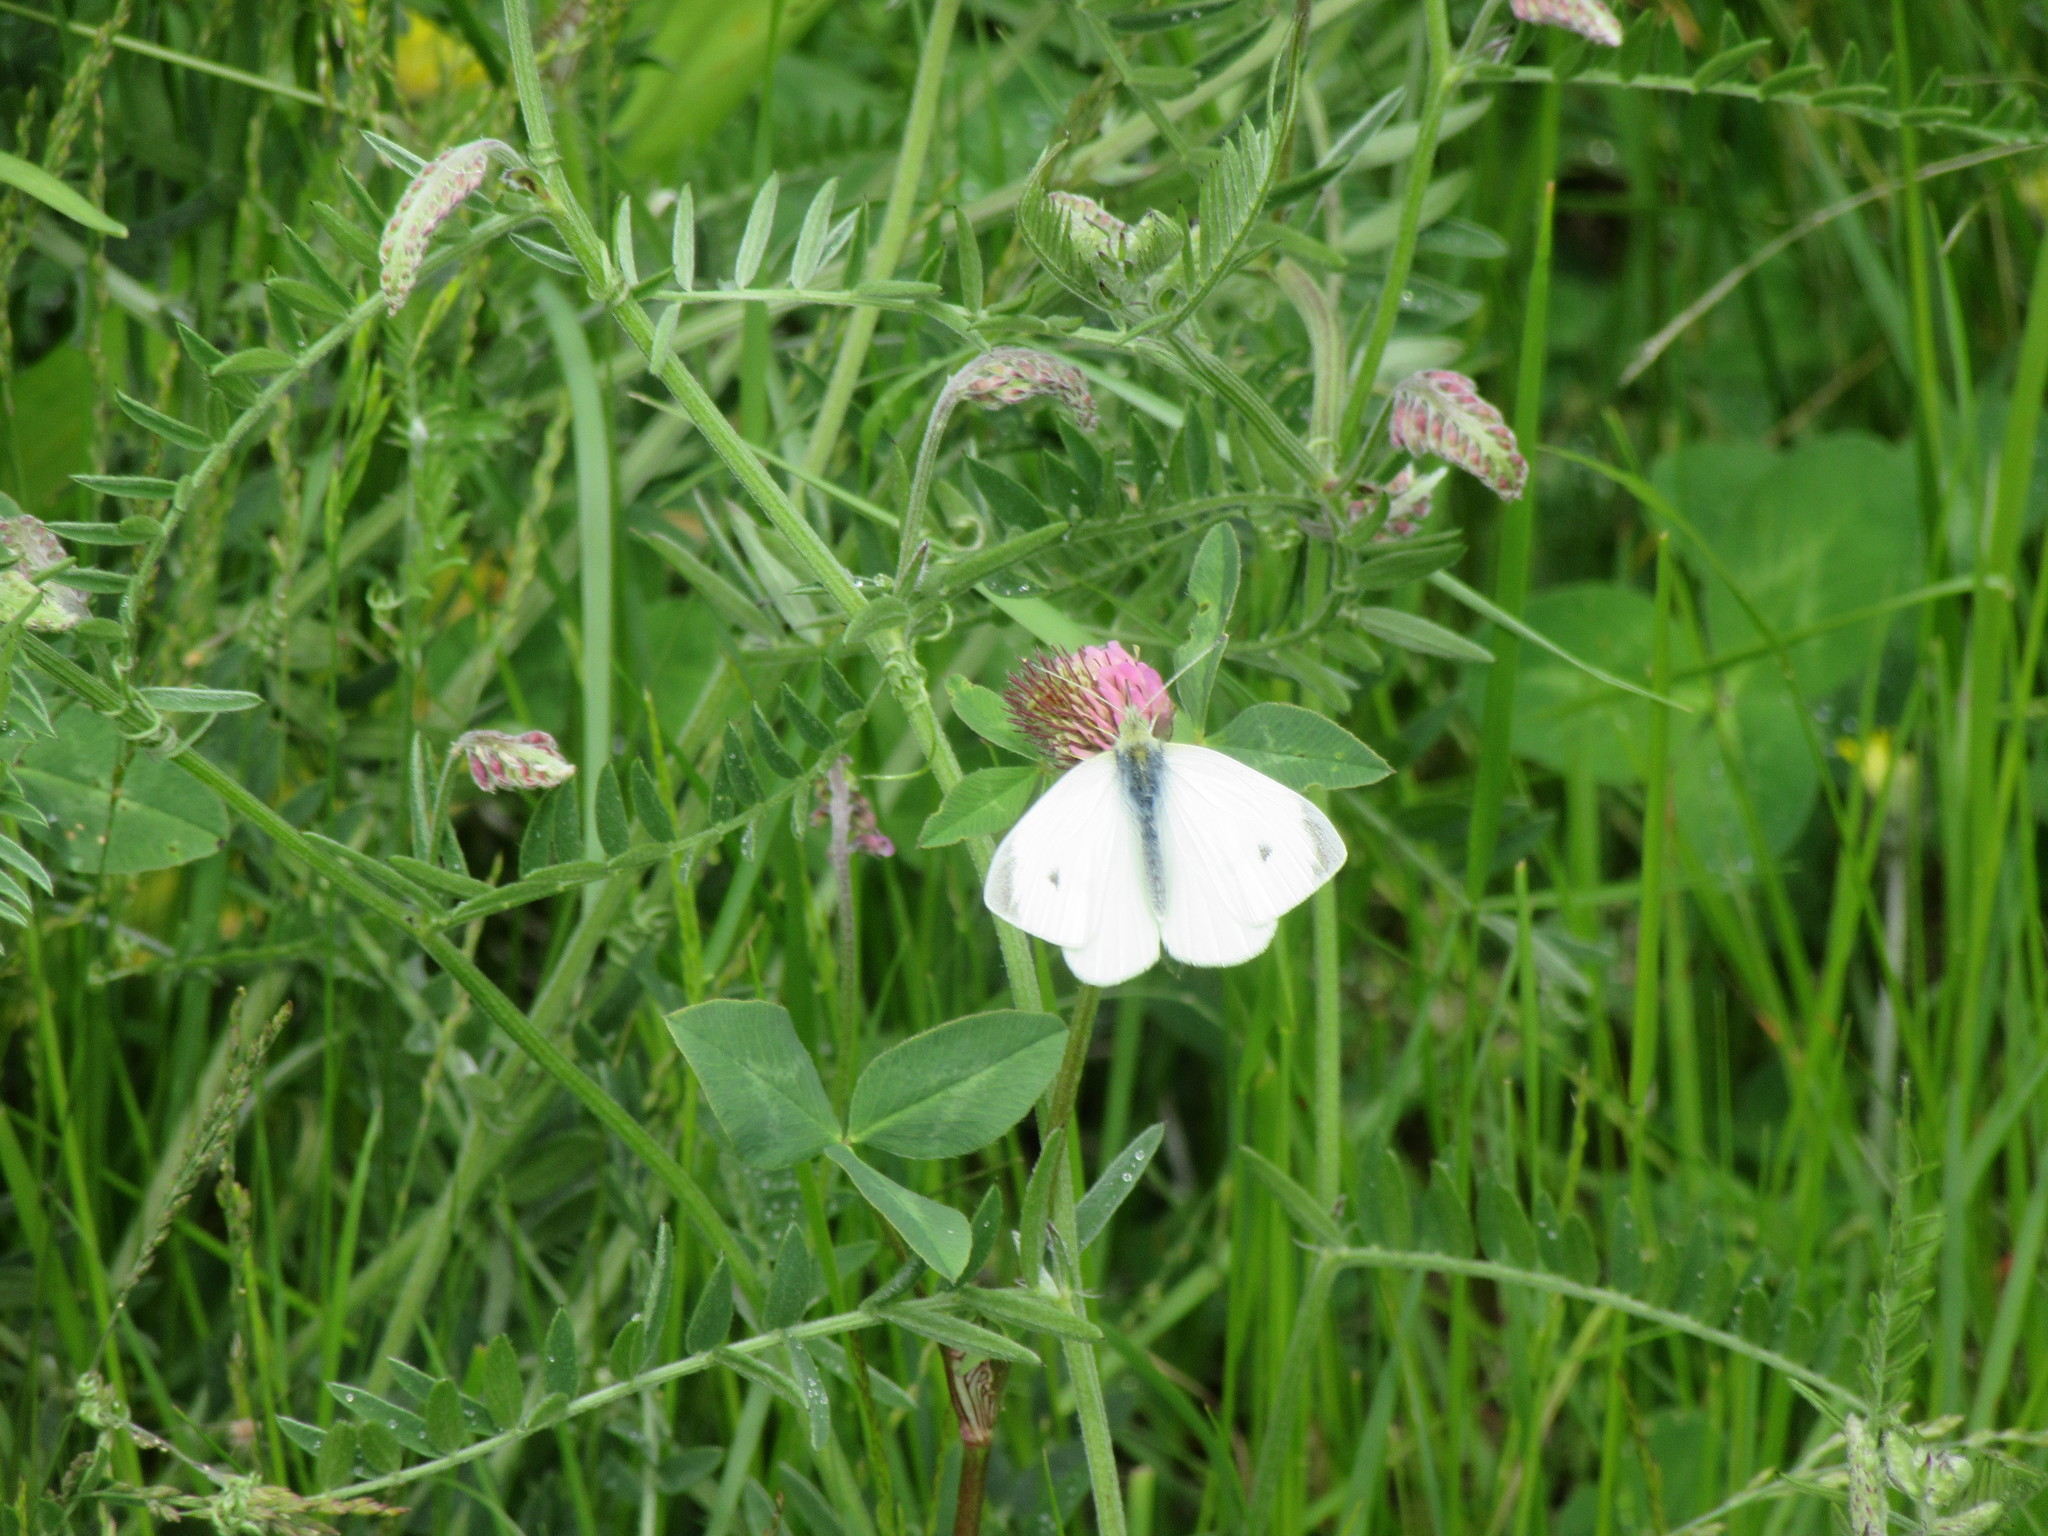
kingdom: Animalia
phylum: Arthropoda
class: Insecta
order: Lepidoptera
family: Pieridae
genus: Pieris
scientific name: Pieris rapae
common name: Small white
